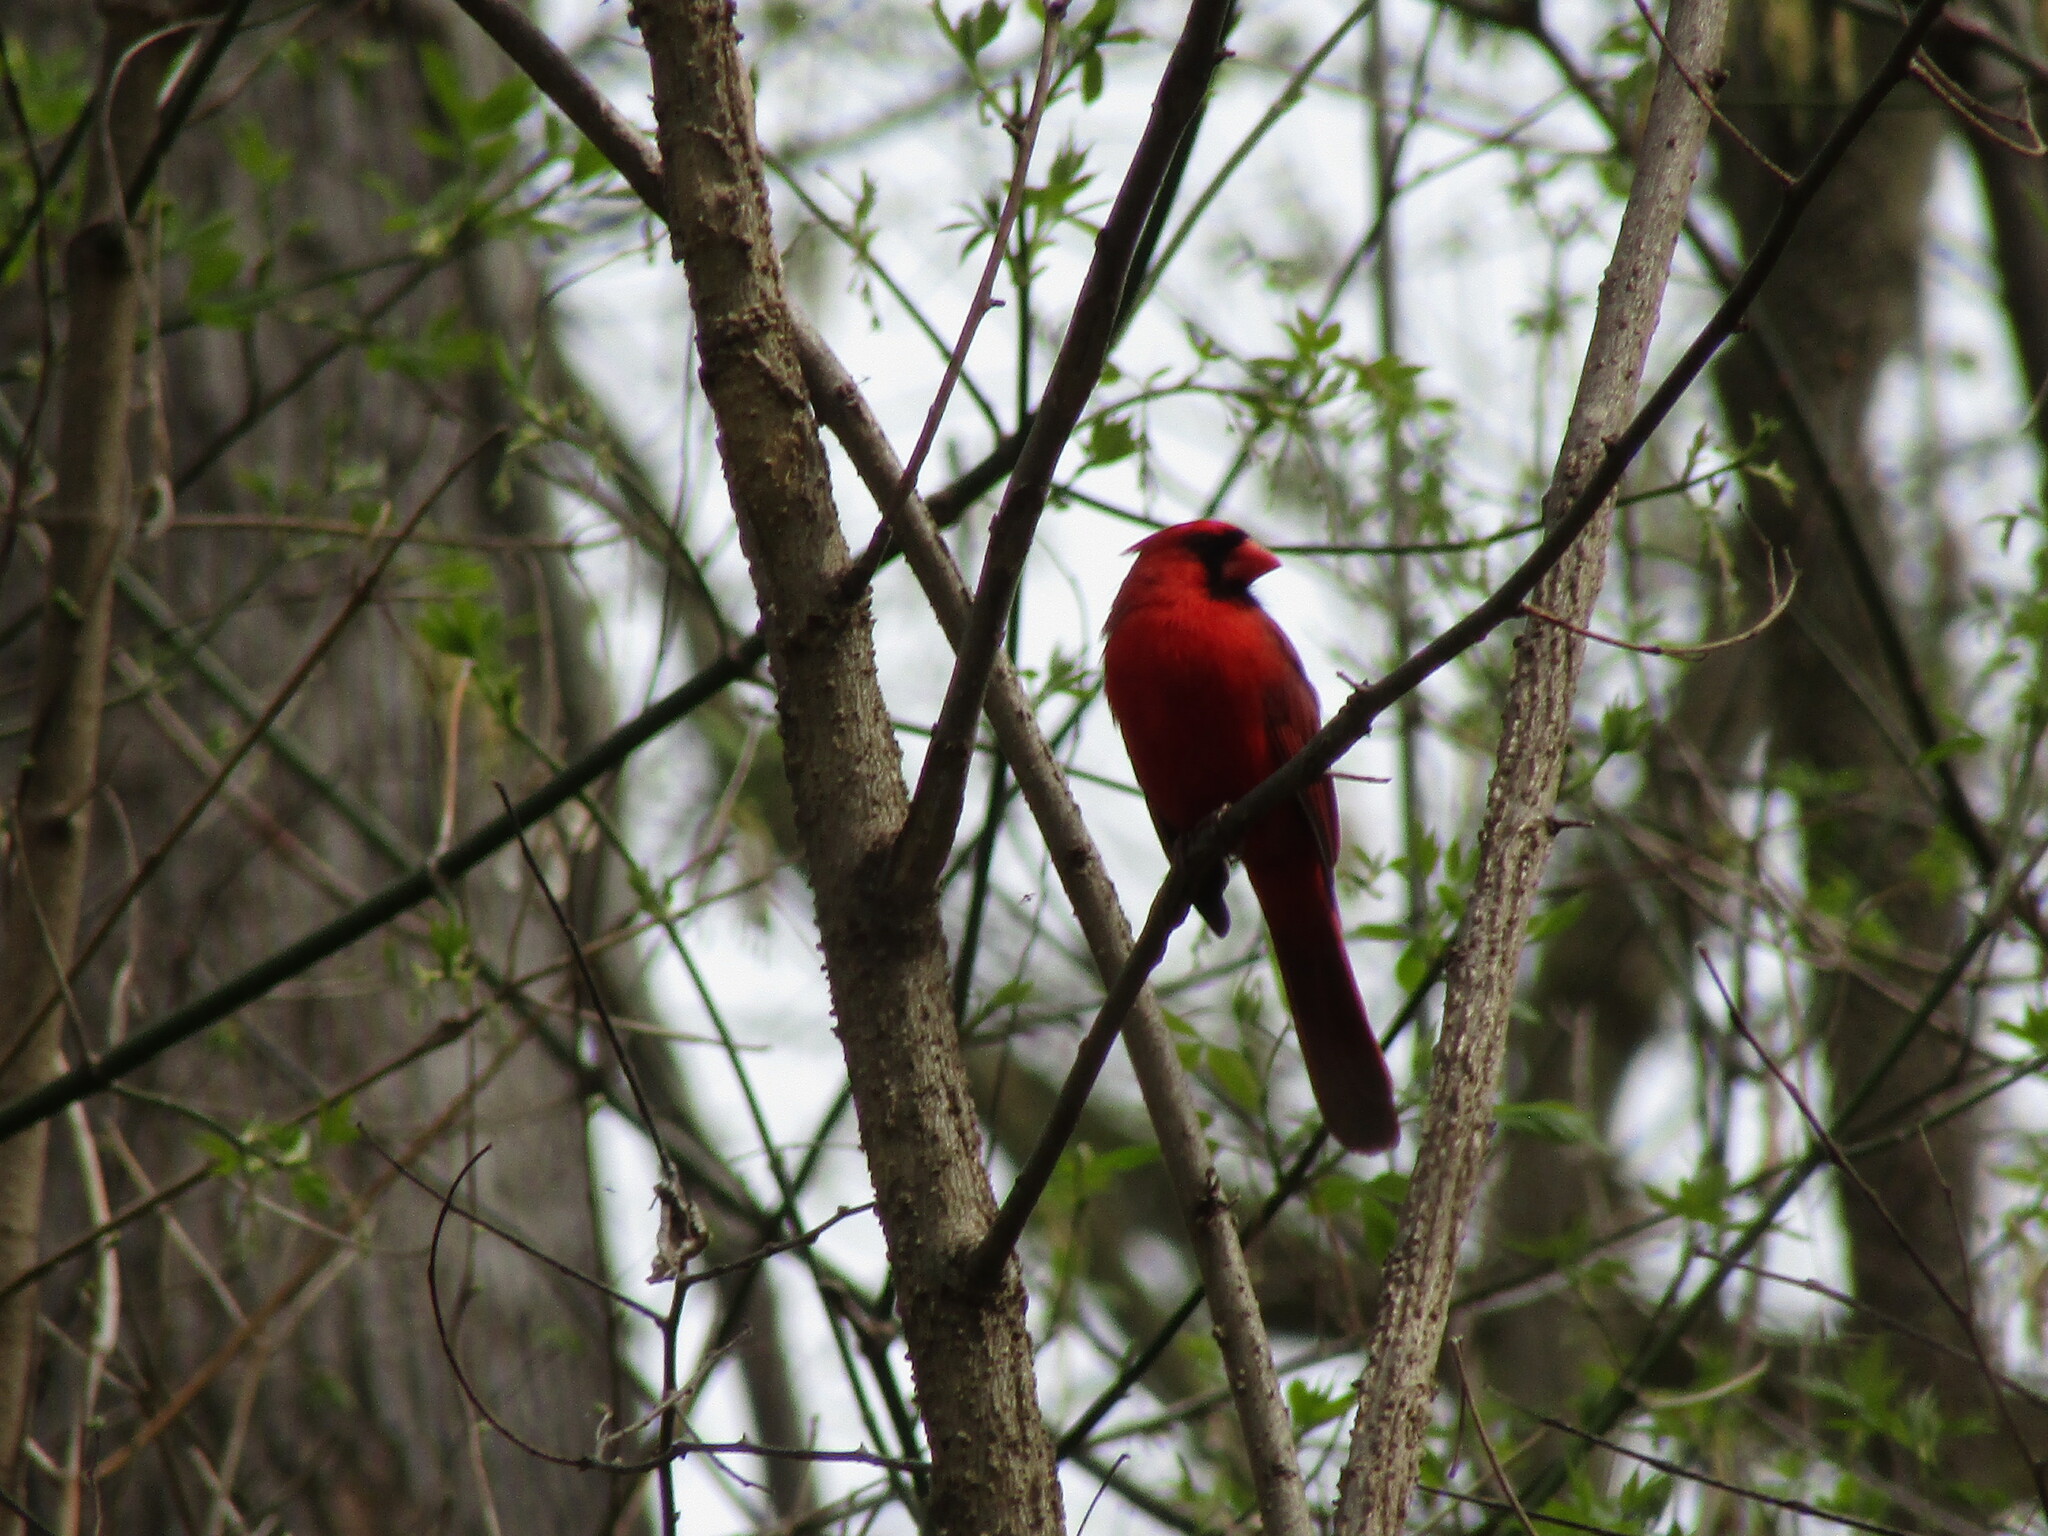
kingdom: Animalia
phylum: Chordata
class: Aves
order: Passeriformes
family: Cardinalidae
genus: Cardinalis
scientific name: Cardinalis cardinalis
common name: Northern cardinal
